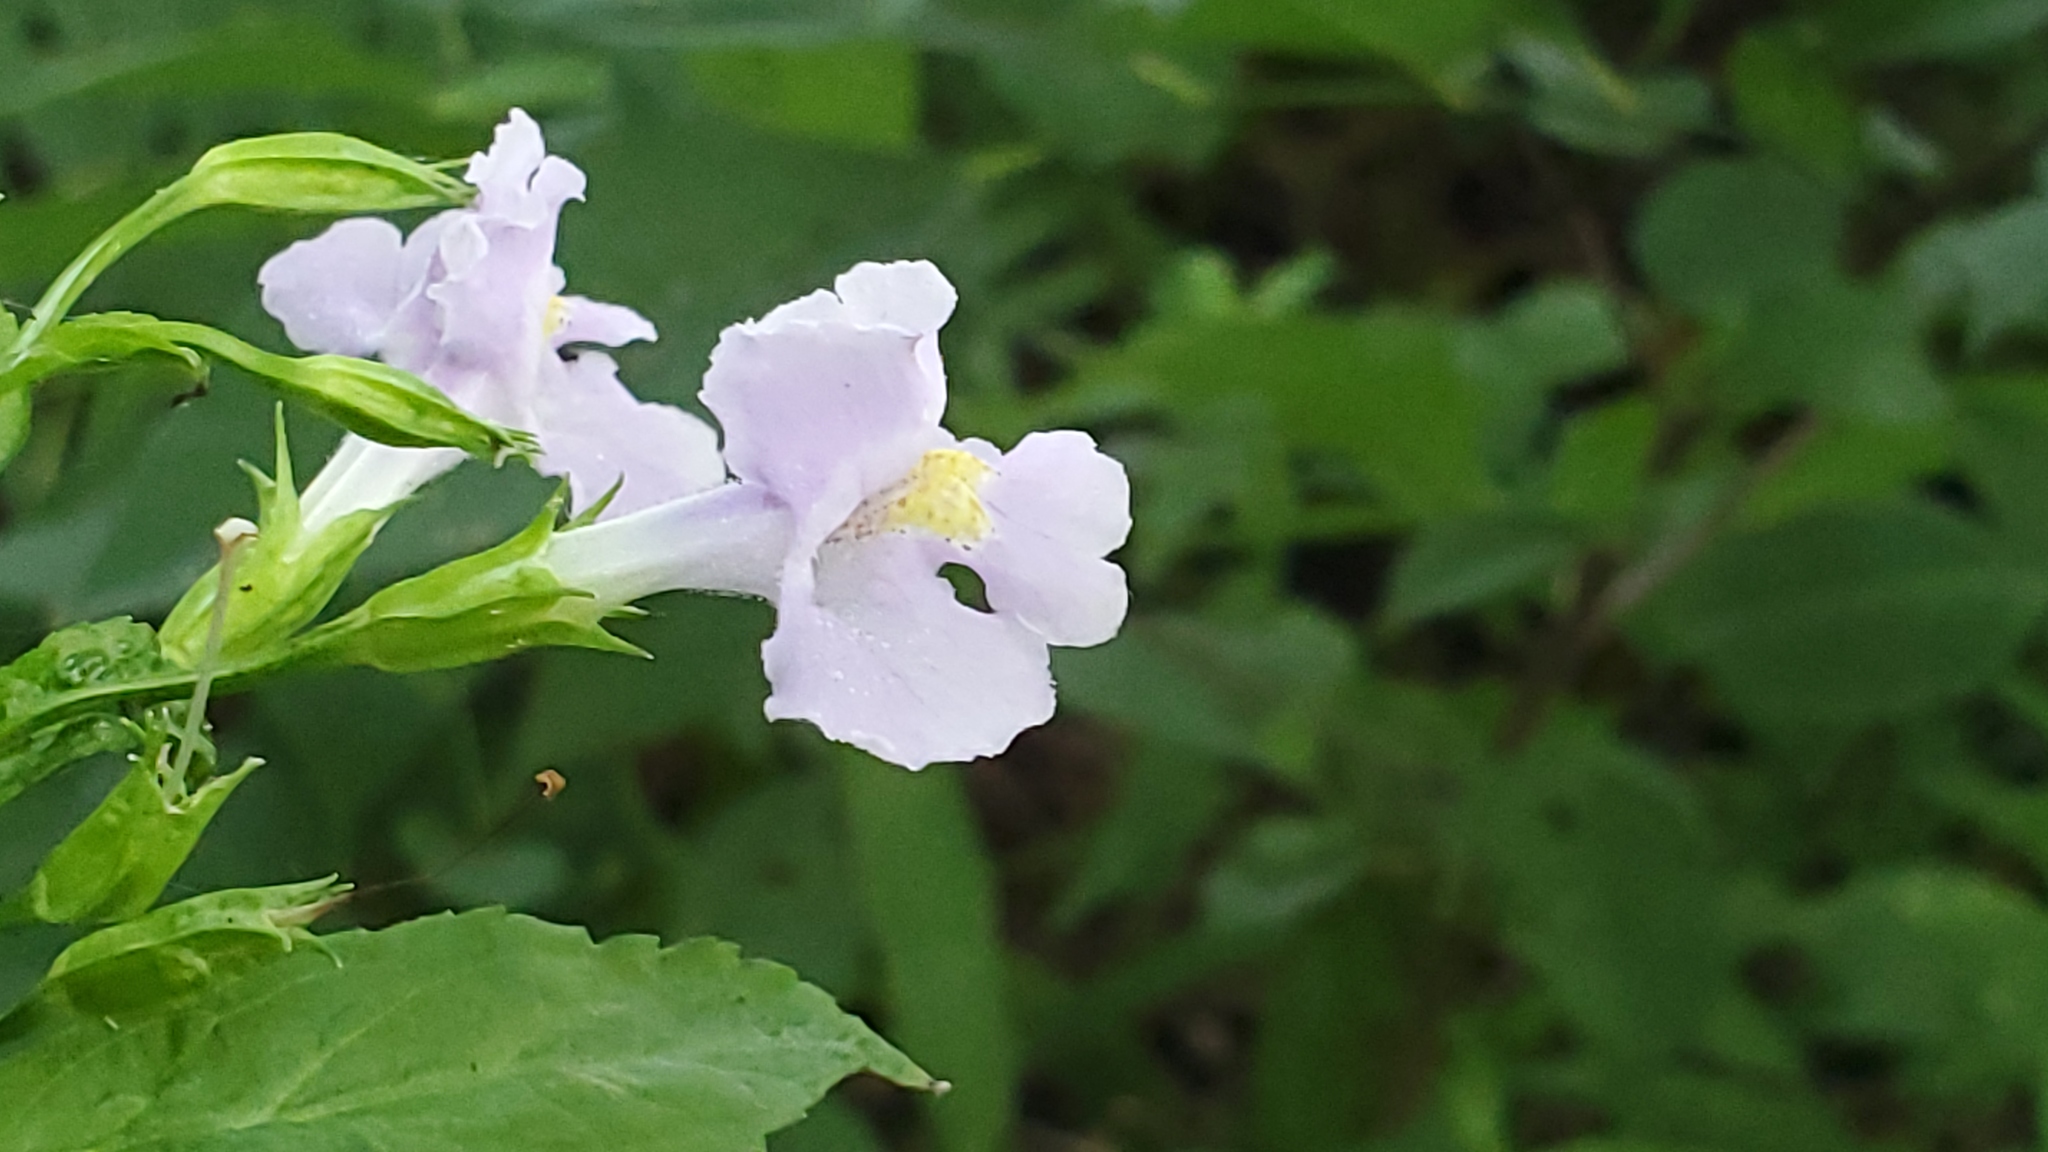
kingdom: Plantae
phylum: Tracheophyta
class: Magnoliopsida
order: Lamiales
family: Phrymaceae
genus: Mimulus
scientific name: Mimulus ringens
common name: Allegheny monkeyflower
